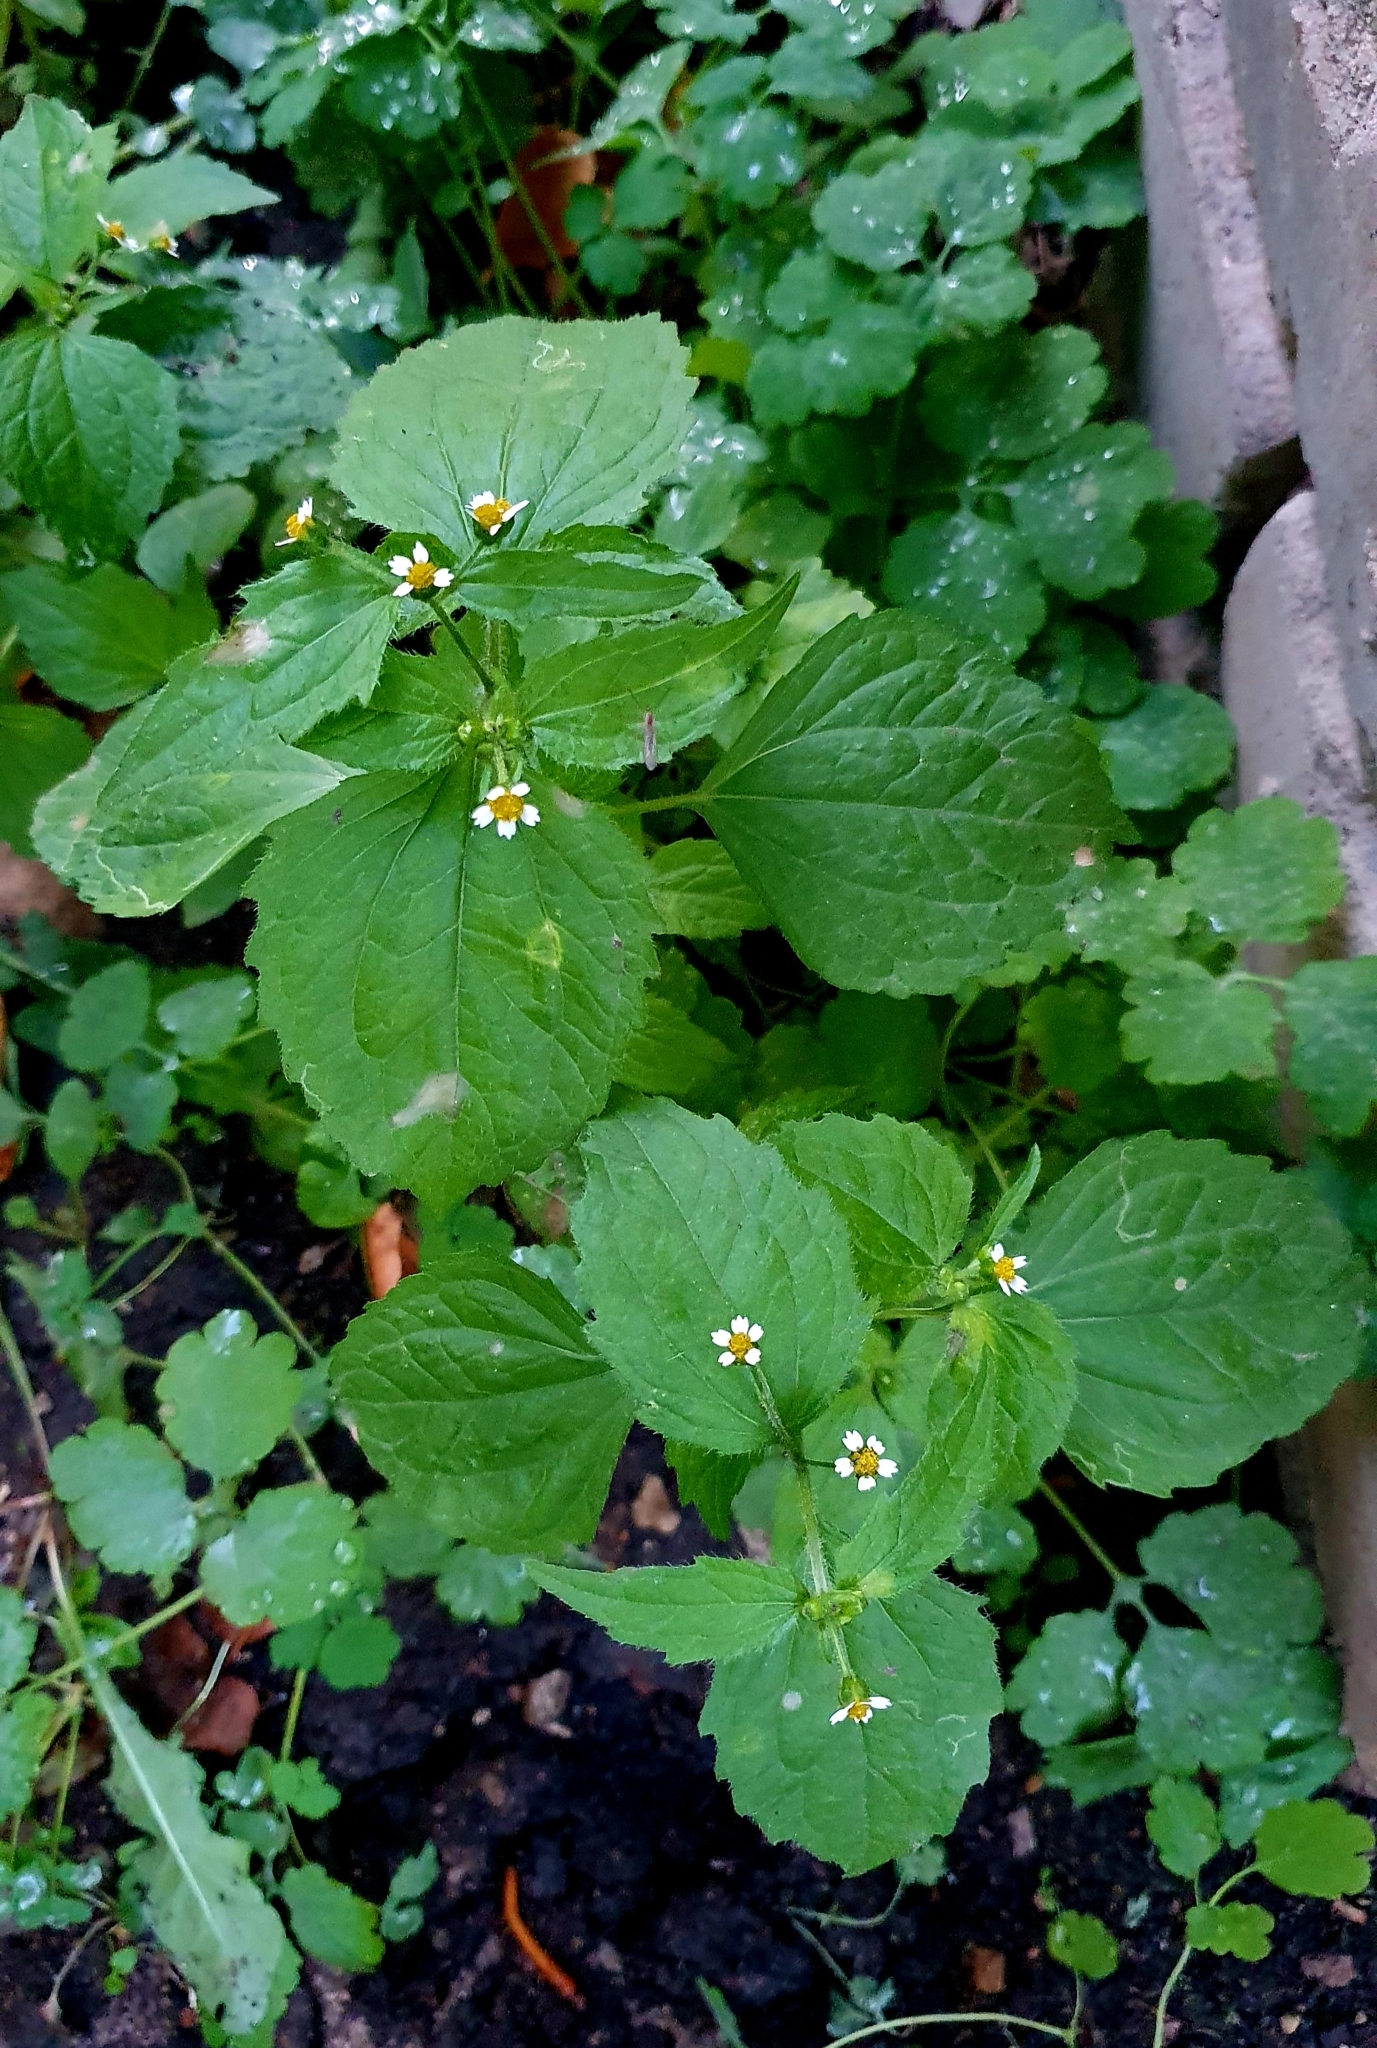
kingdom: Plantae
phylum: Tracheophyta
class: Magnoliopsida
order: Asterales
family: Asteraceae
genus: Galinsoga
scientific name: Galinsoga quadriradiata
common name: Shaggy soldier
